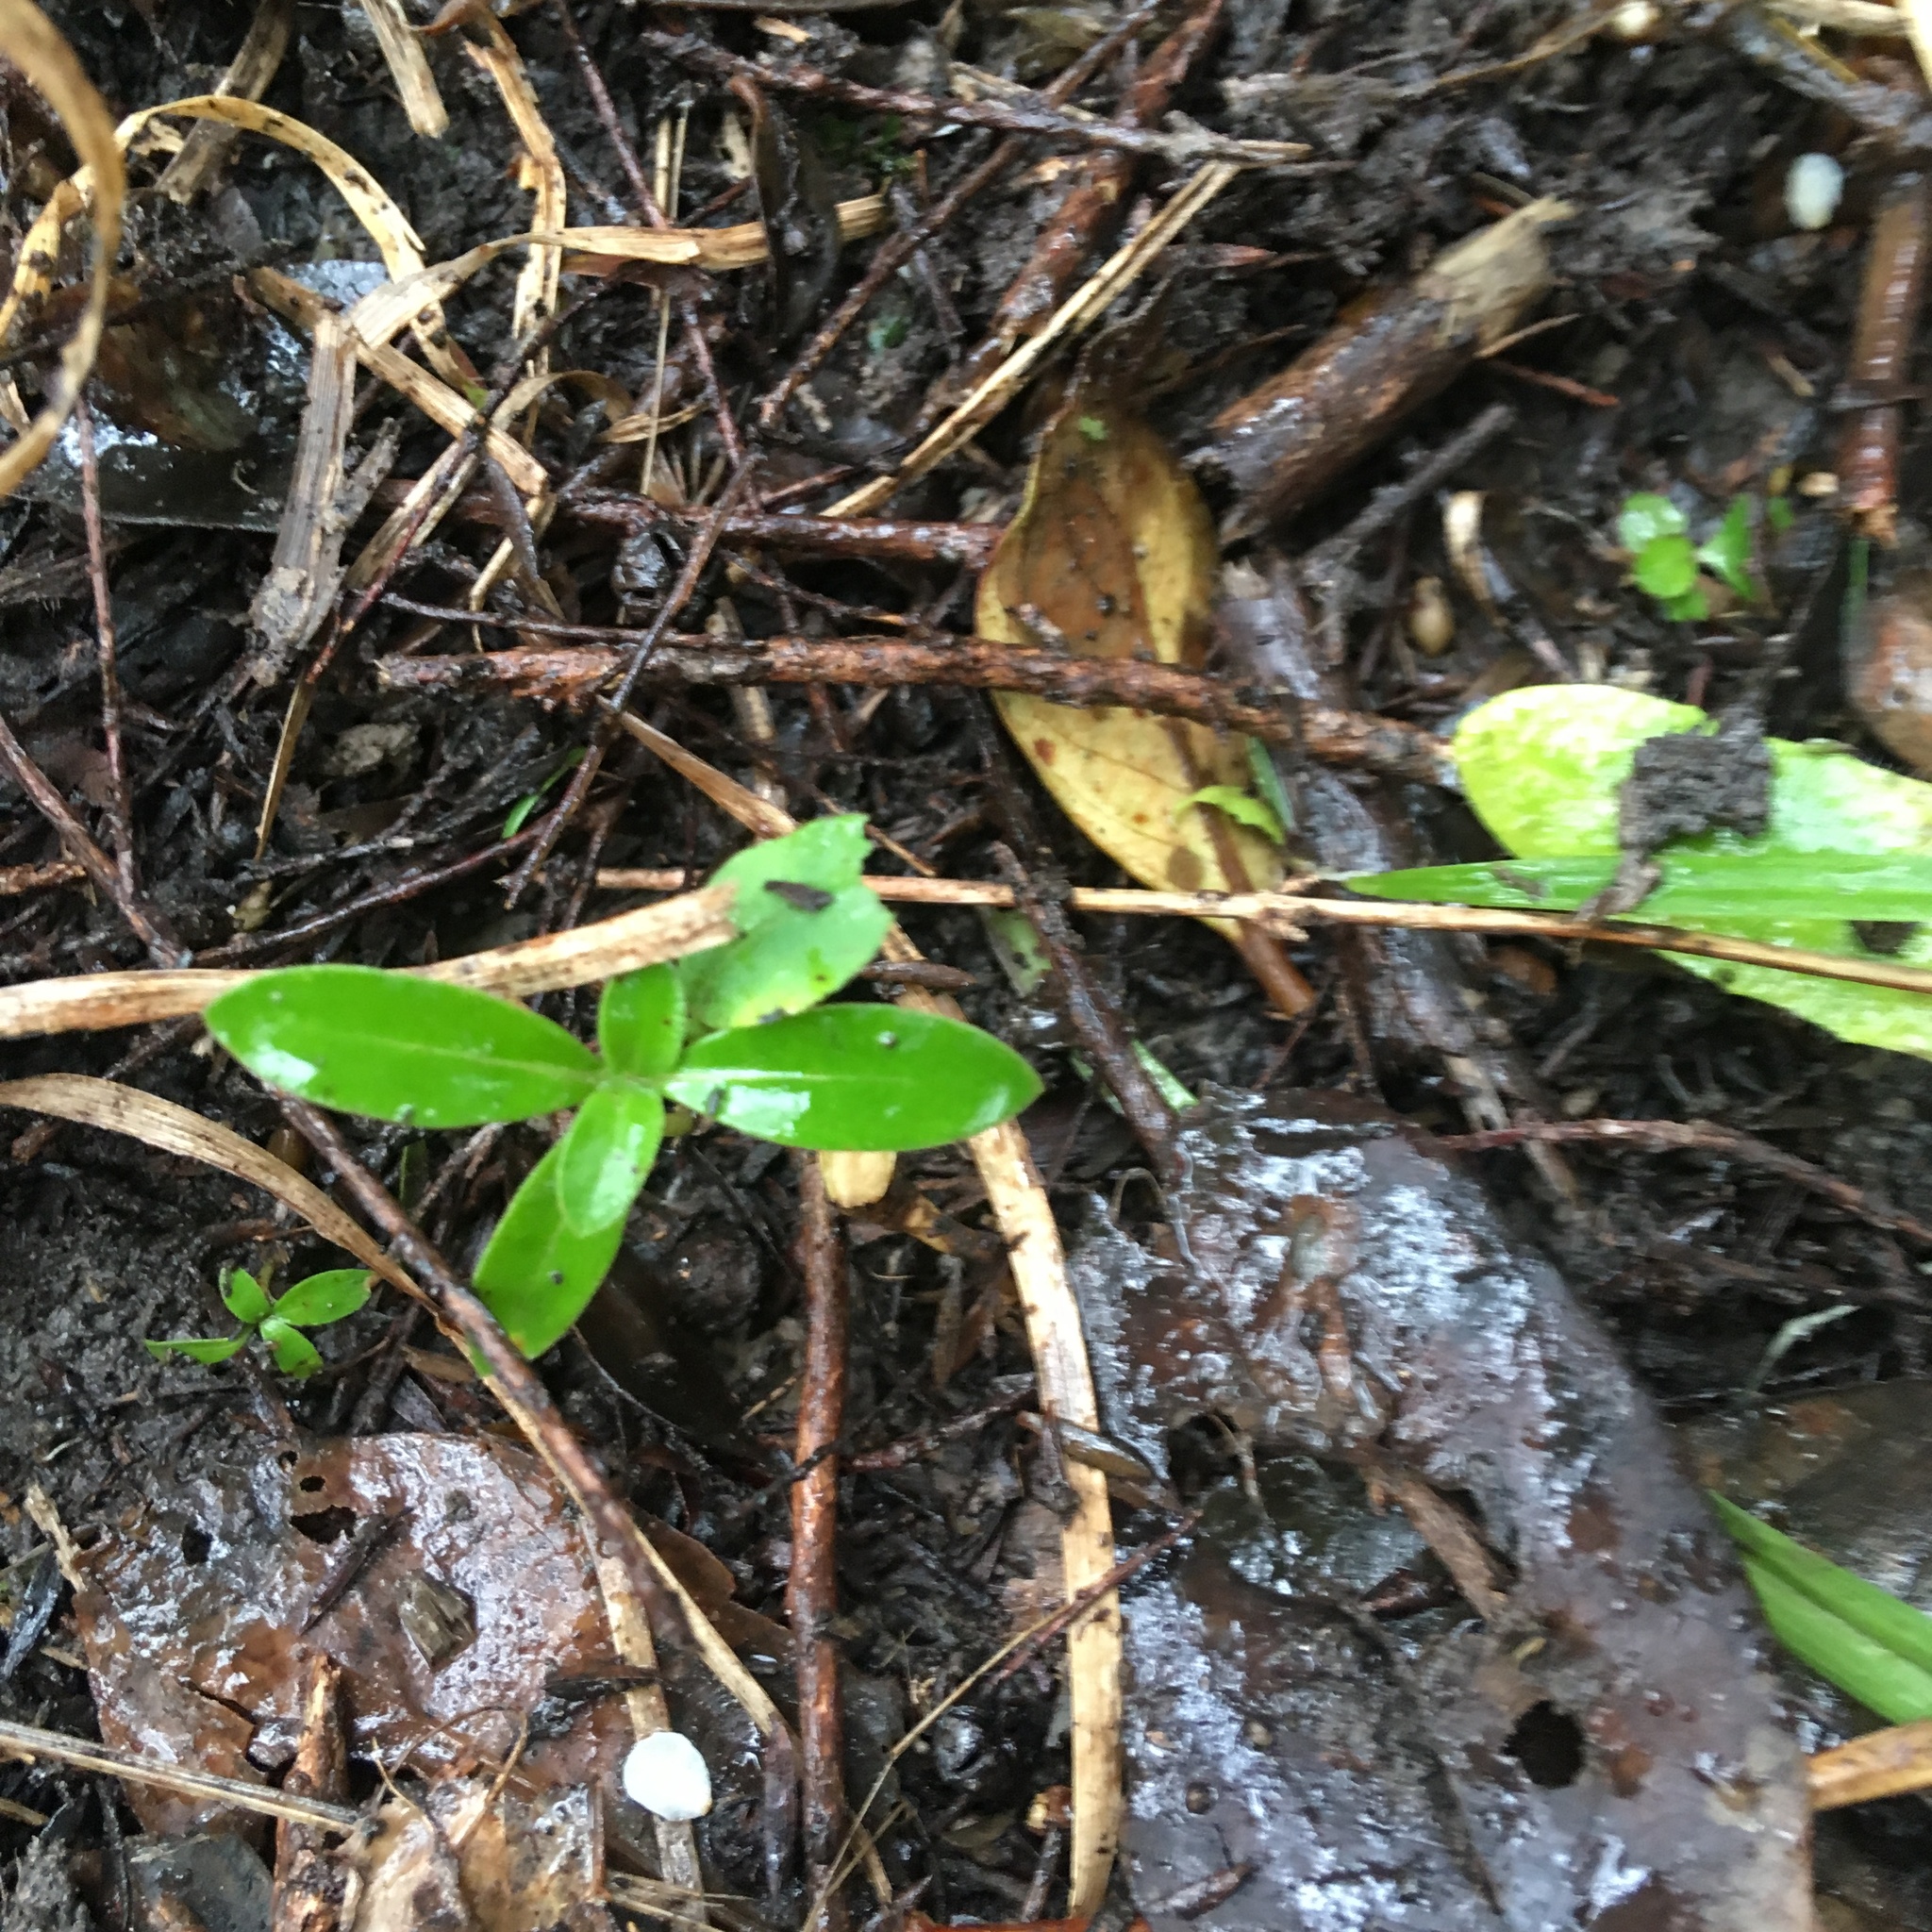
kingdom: Plantae
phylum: Tracheophyta
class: Magnoliopsida
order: Gentianales
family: Rubiaceae
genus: Coprosma
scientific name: Coprosma robusta
